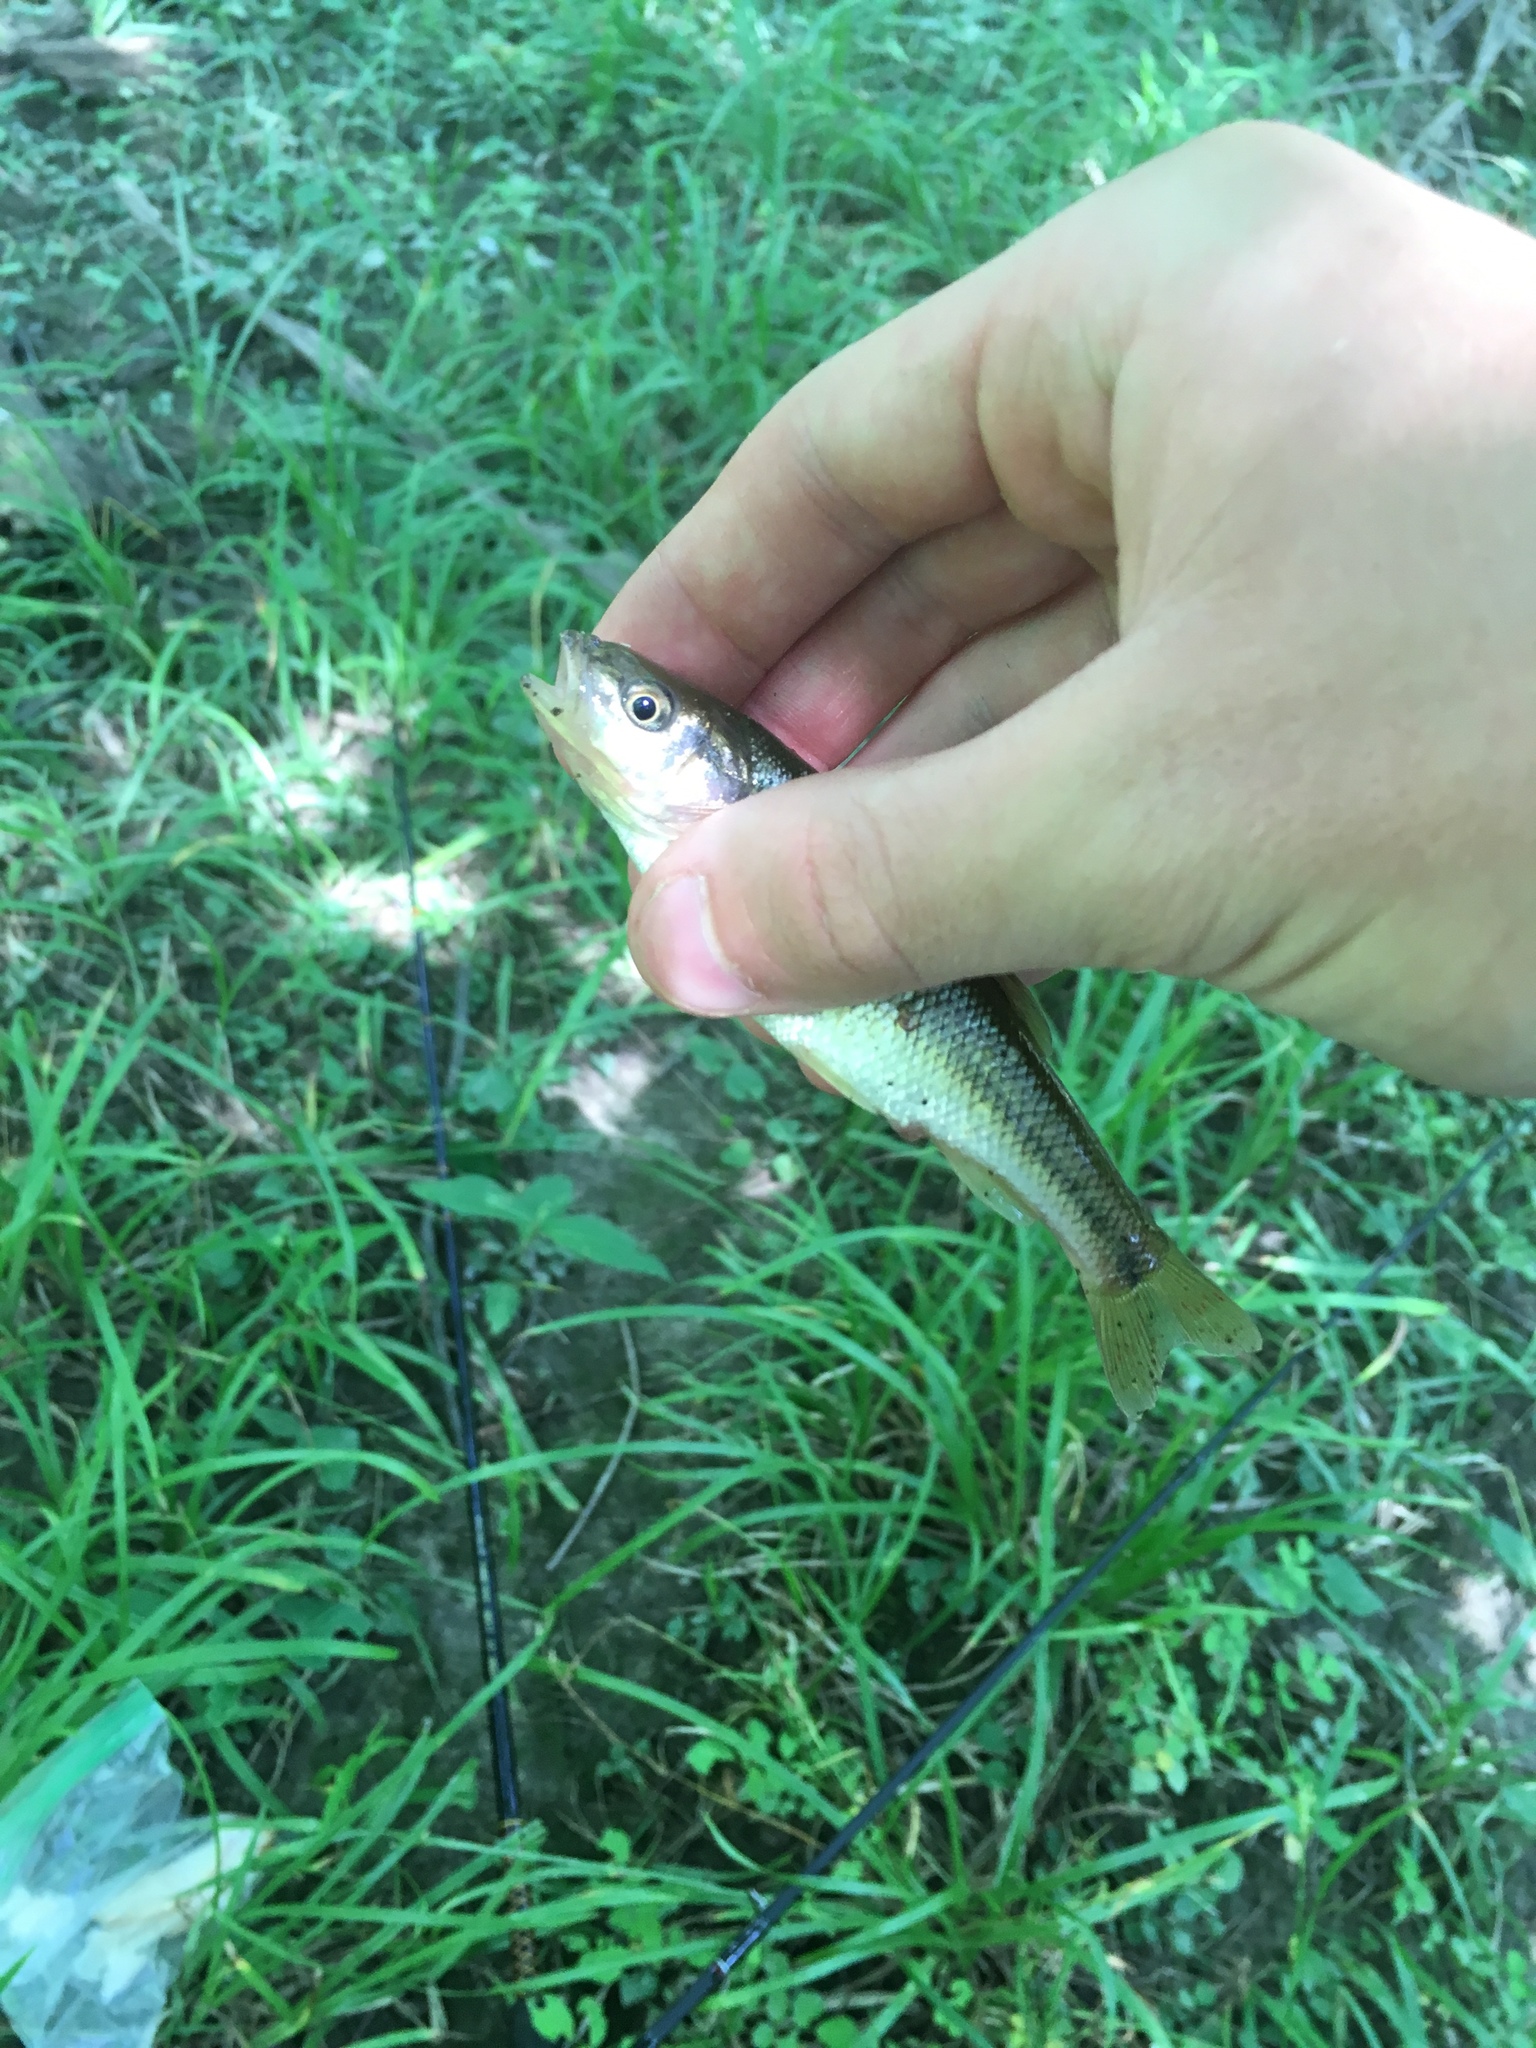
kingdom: Animalia
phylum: Chordata
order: Cypriniformes
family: Cyprinidae
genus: Semotilus
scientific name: Semotilus atromaculatus
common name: Creek chub
